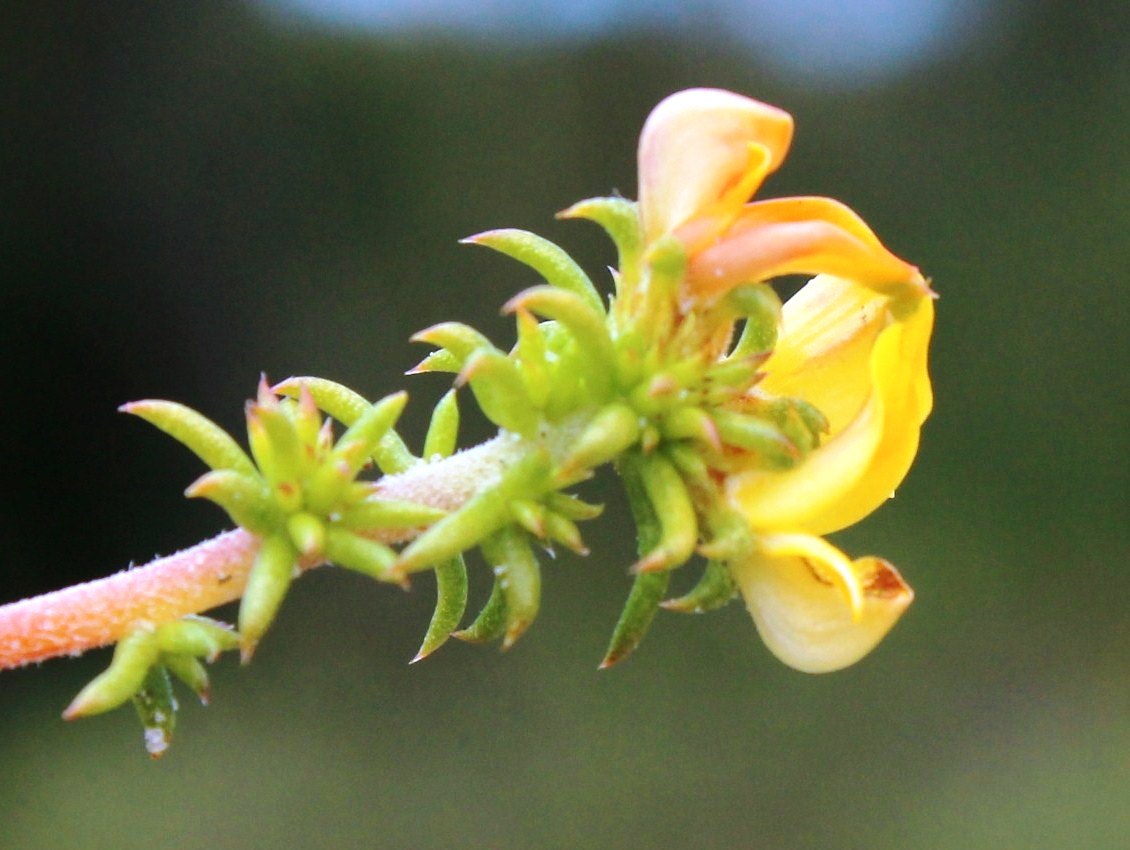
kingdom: Plantae
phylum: Tracheophyta
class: Magnoliopsida
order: Fabales
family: Fabaceae
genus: Aspalathus
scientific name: Aspalathus crassisepala
